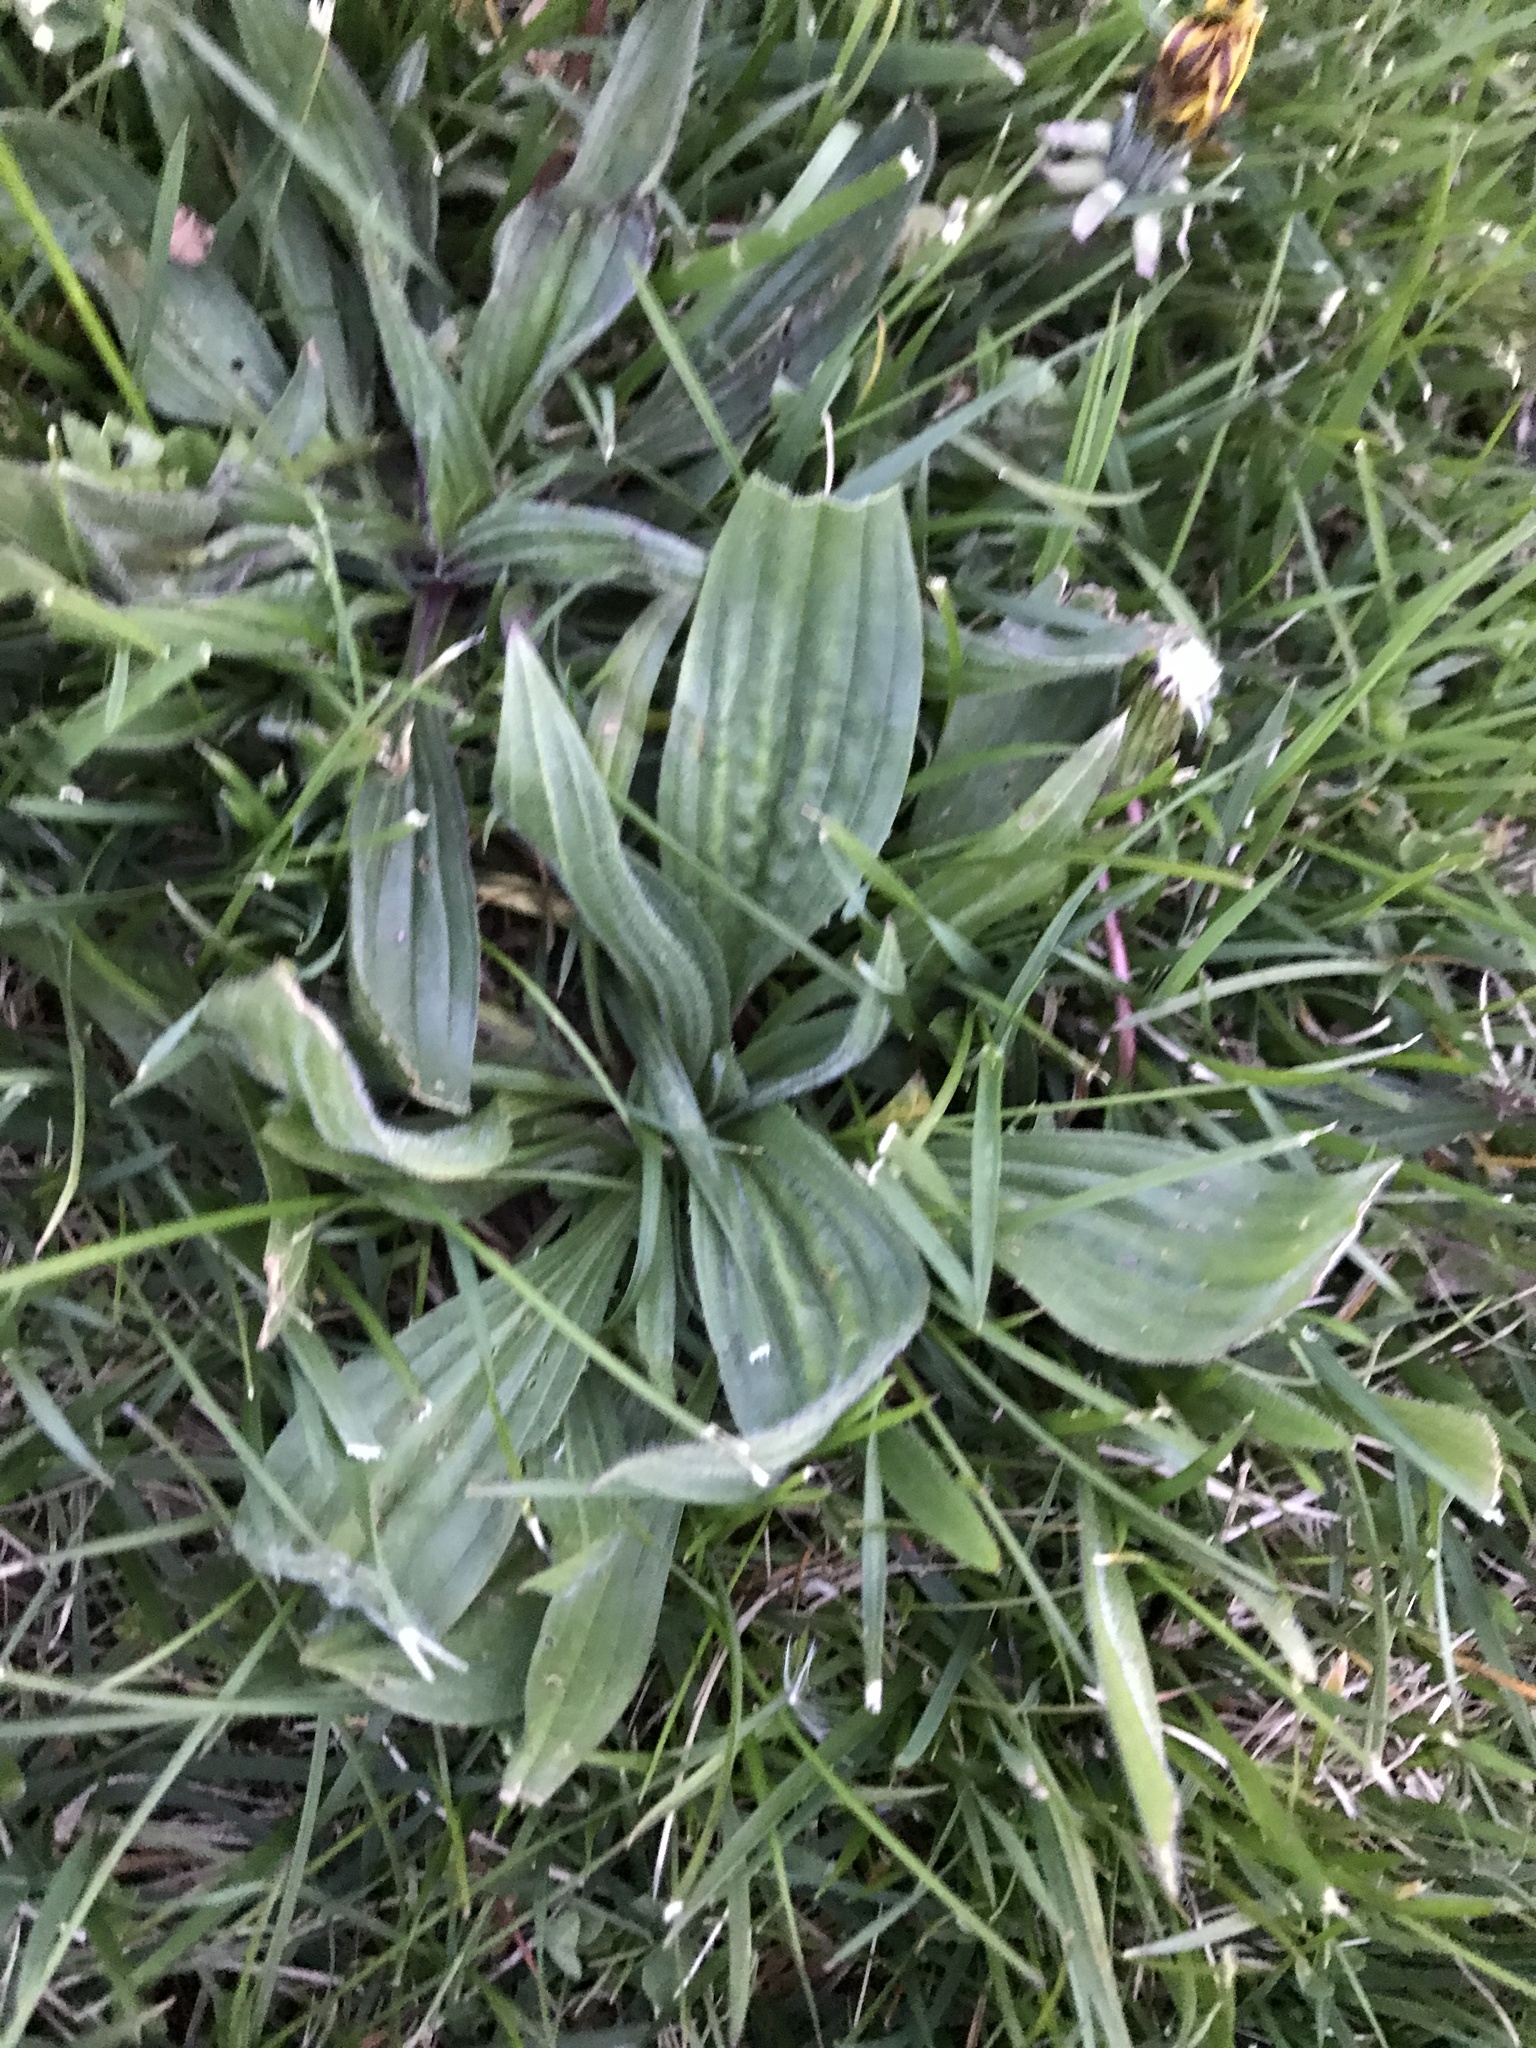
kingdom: Plantae
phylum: Tracheophyta
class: Magnoliopsida
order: Lamiales
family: Plantaginaceae
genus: Plantago
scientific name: Plantago lanceolata
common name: Ribwort plantain
